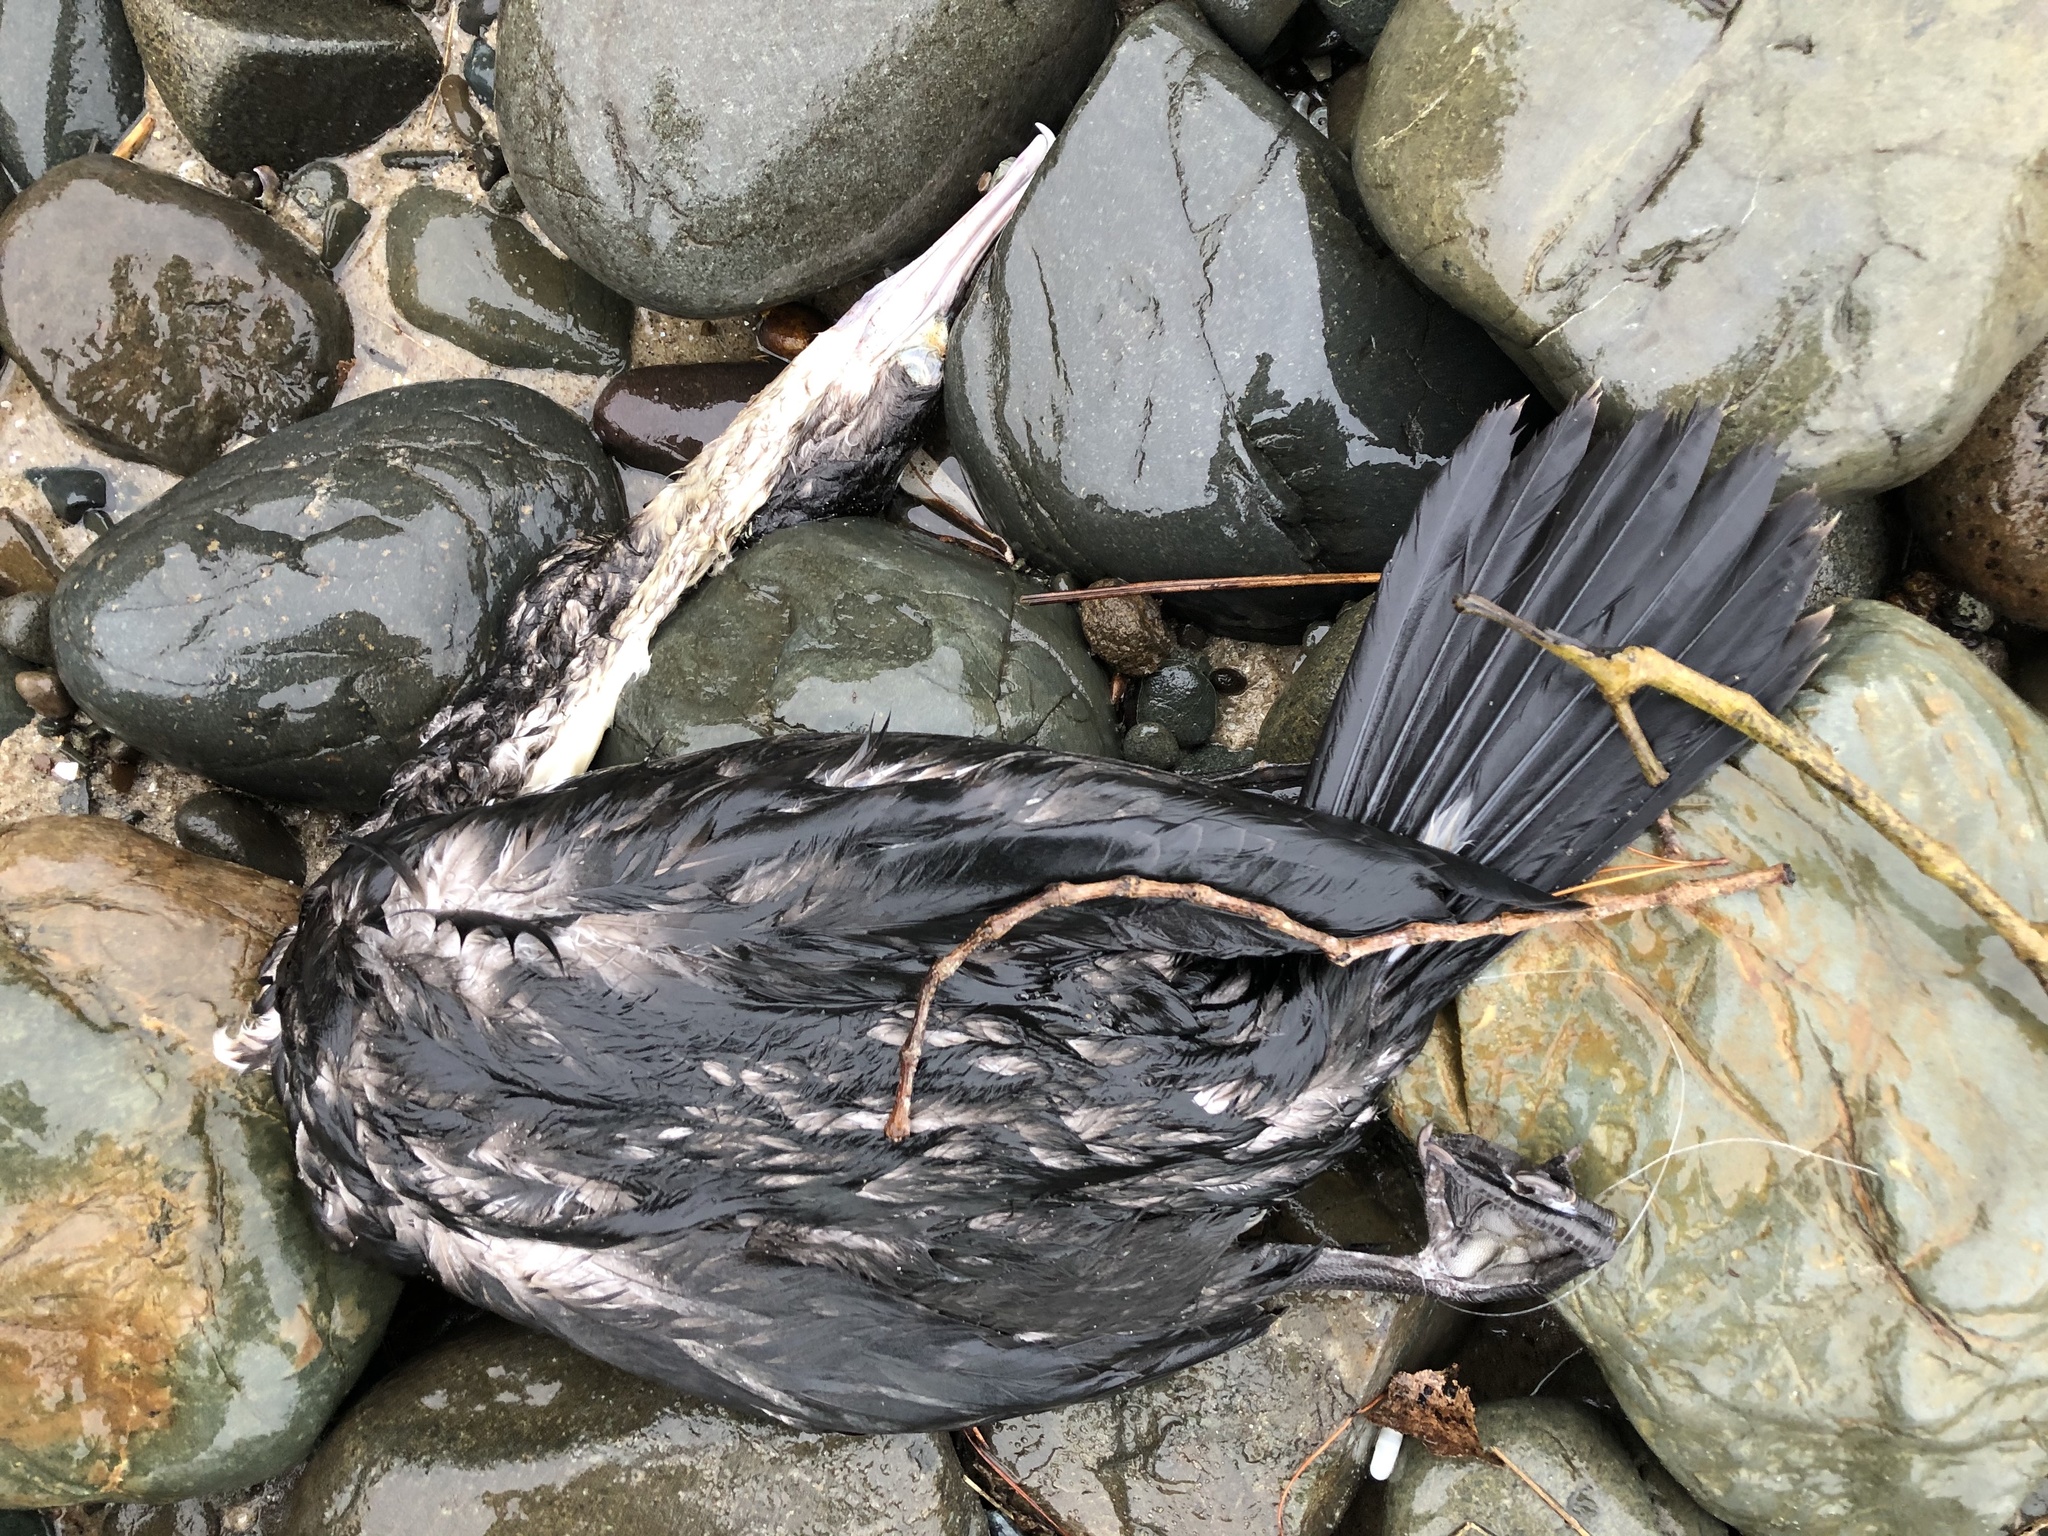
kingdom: Animalia
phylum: Chordata
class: Aves
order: Suliformes
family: Phalacrocoracidae
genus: Phalacrocorax
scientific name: Phalacrocorax varius
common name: Pied cormorant
